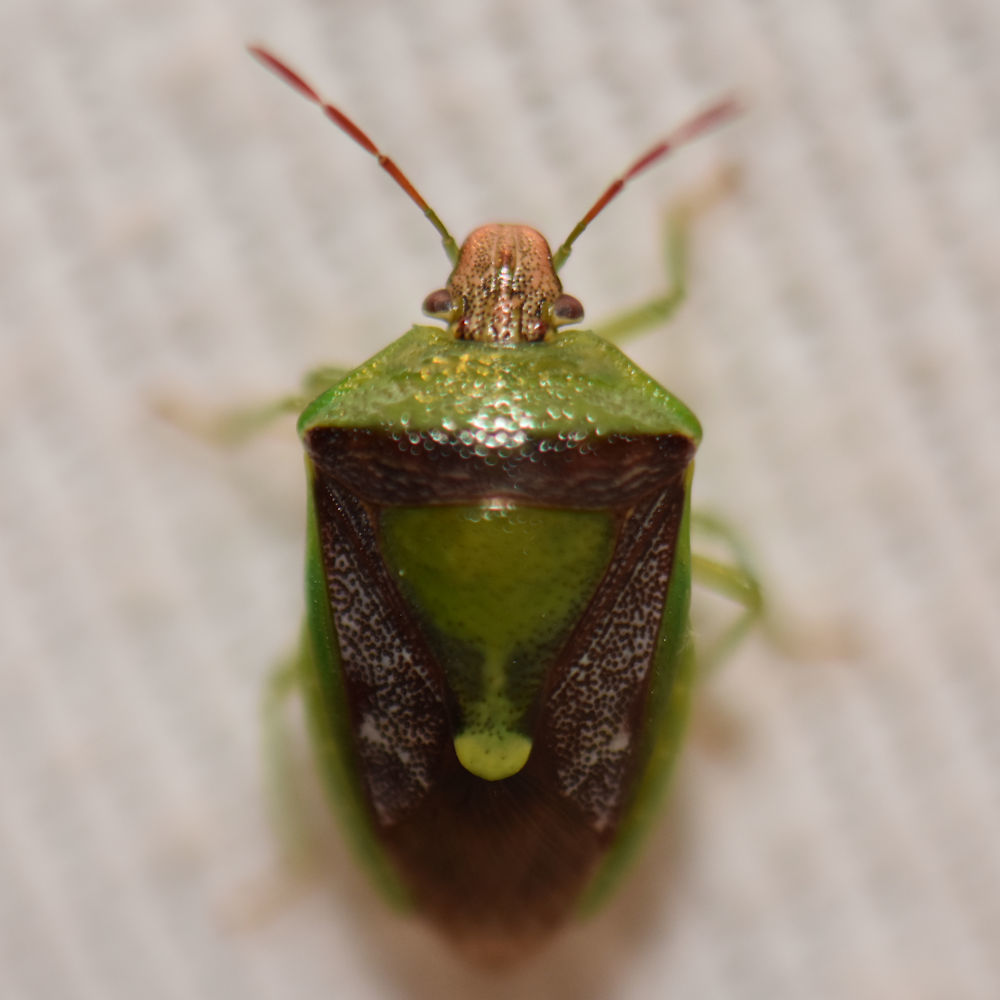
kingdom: Animalia
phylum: Arthropoda
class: Insecta
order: Hemiptera
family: Pentatomidae
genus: Banasa
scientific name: Banasa dimidiata
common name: Green burgundy stink bug
